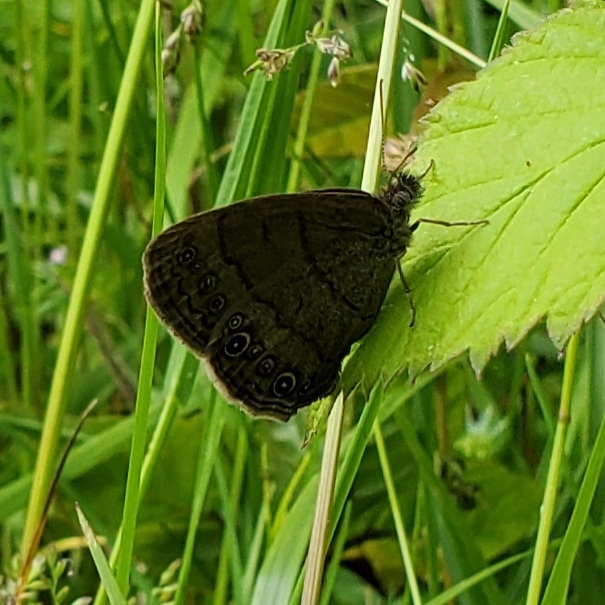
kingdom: Animalia
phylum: Arthropoda
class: Insecta
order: Lepidoptera
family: Nymphalidae
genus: Hermeuptychia
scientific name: Hermeuptychia hermes
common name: Hermes satyr
